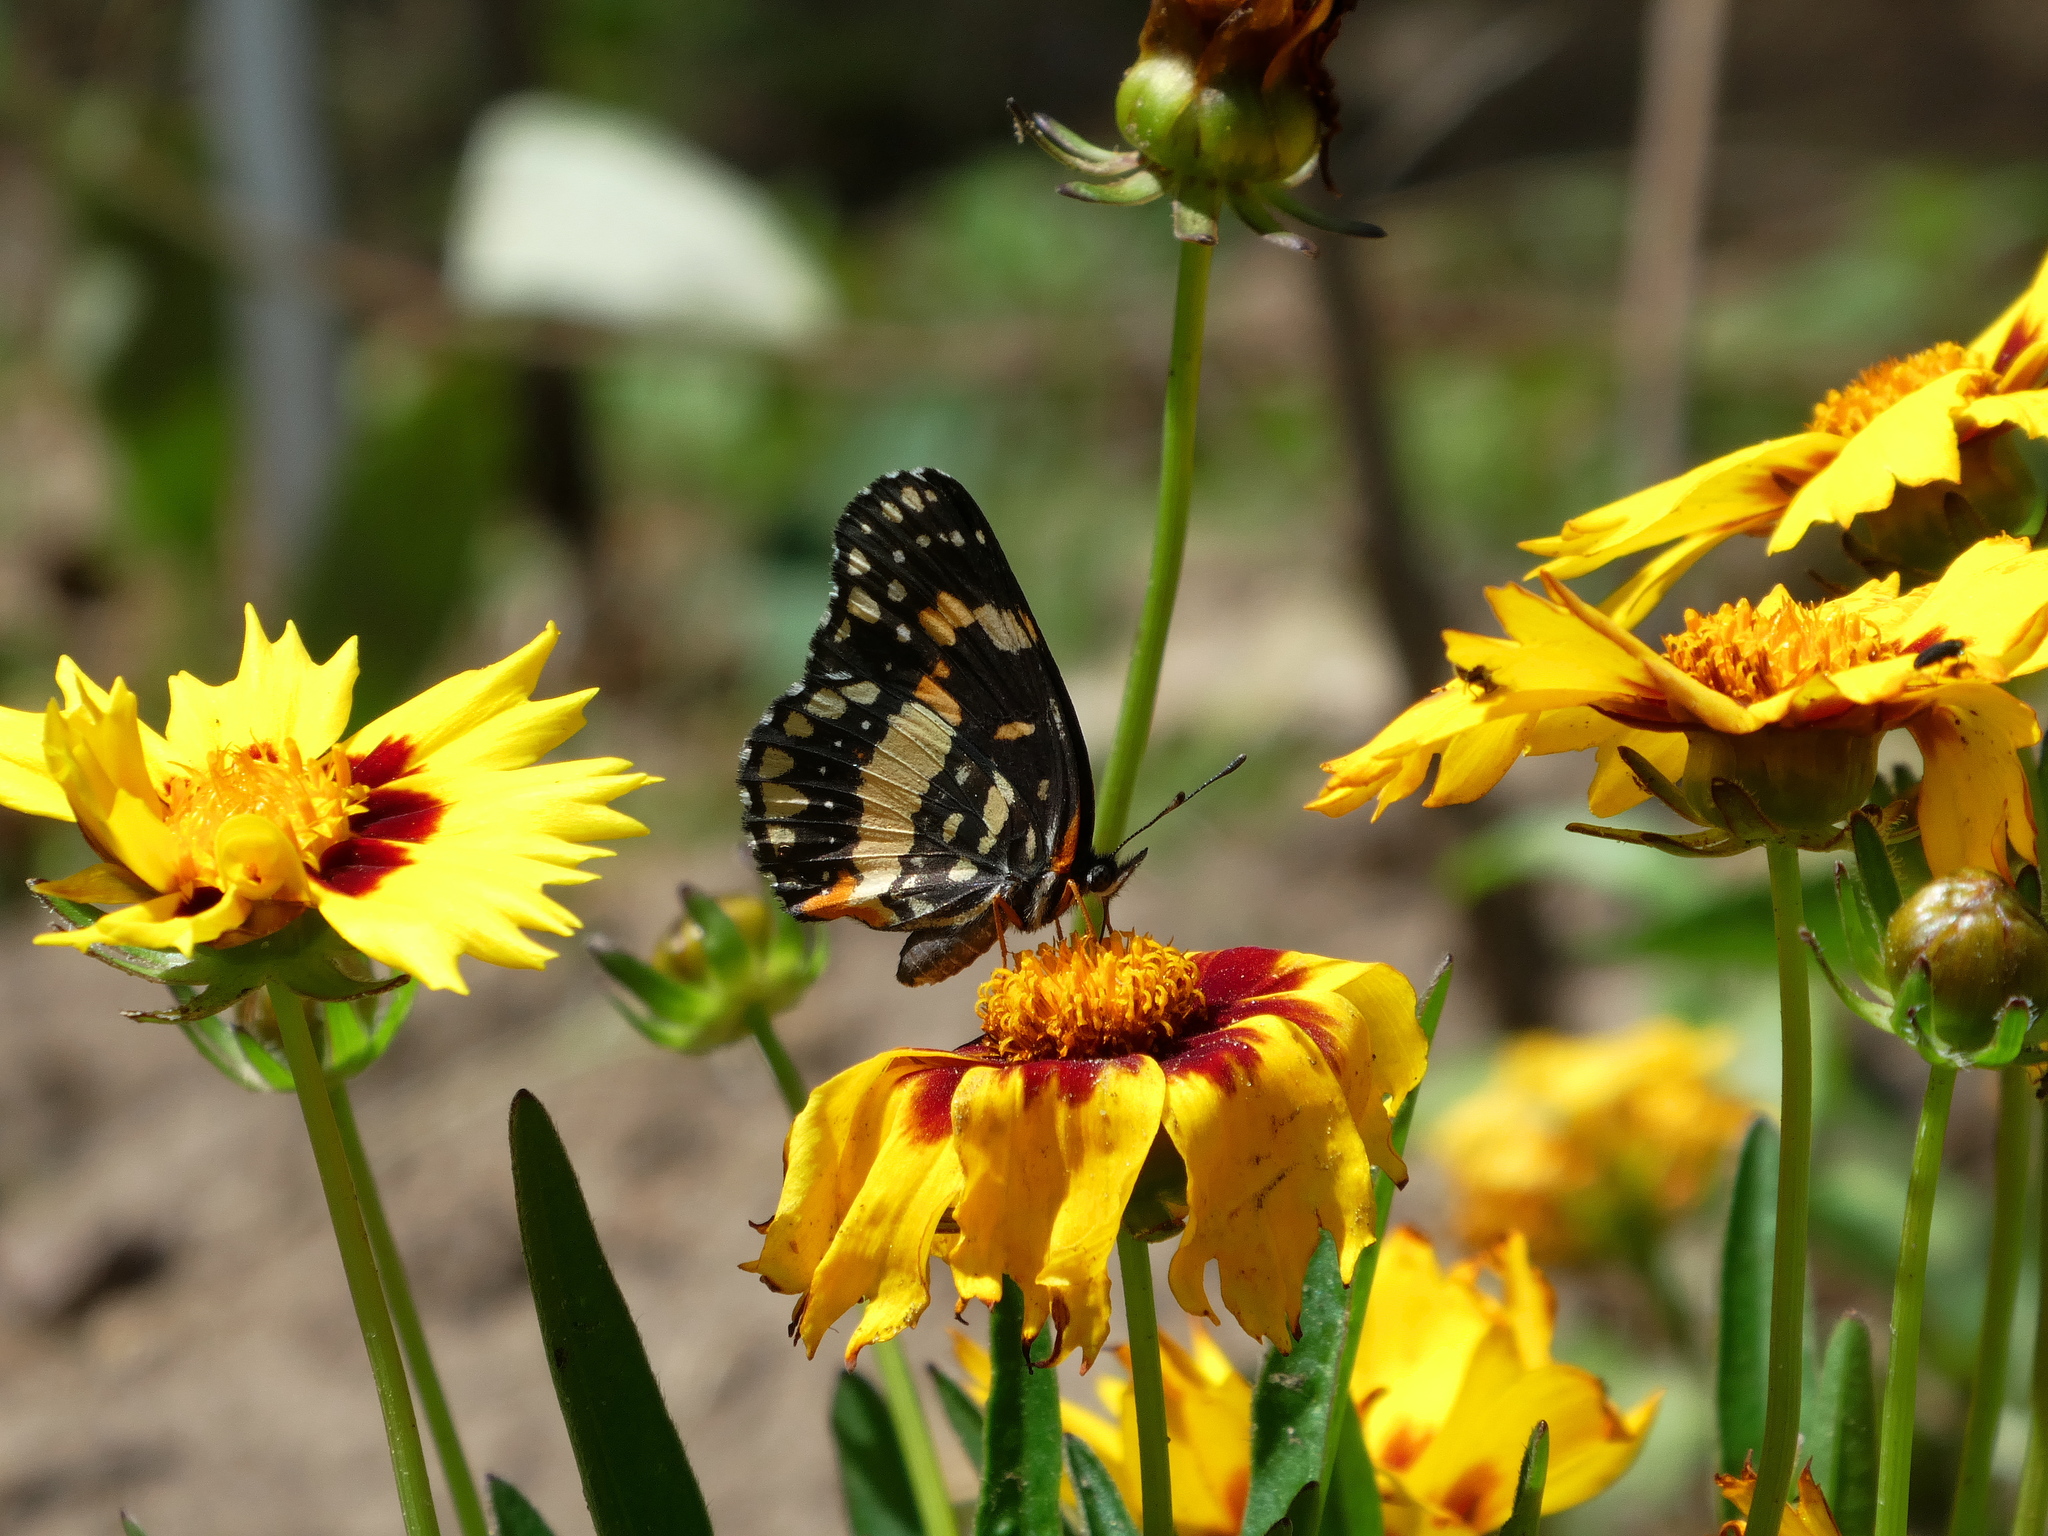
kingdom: Animalia
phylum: Arthropoda
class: Insecta
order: Lepidoptera
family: Nymphalidae
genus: Chlosyne
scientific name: Chlosyne lacinia
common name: Bordered patch
